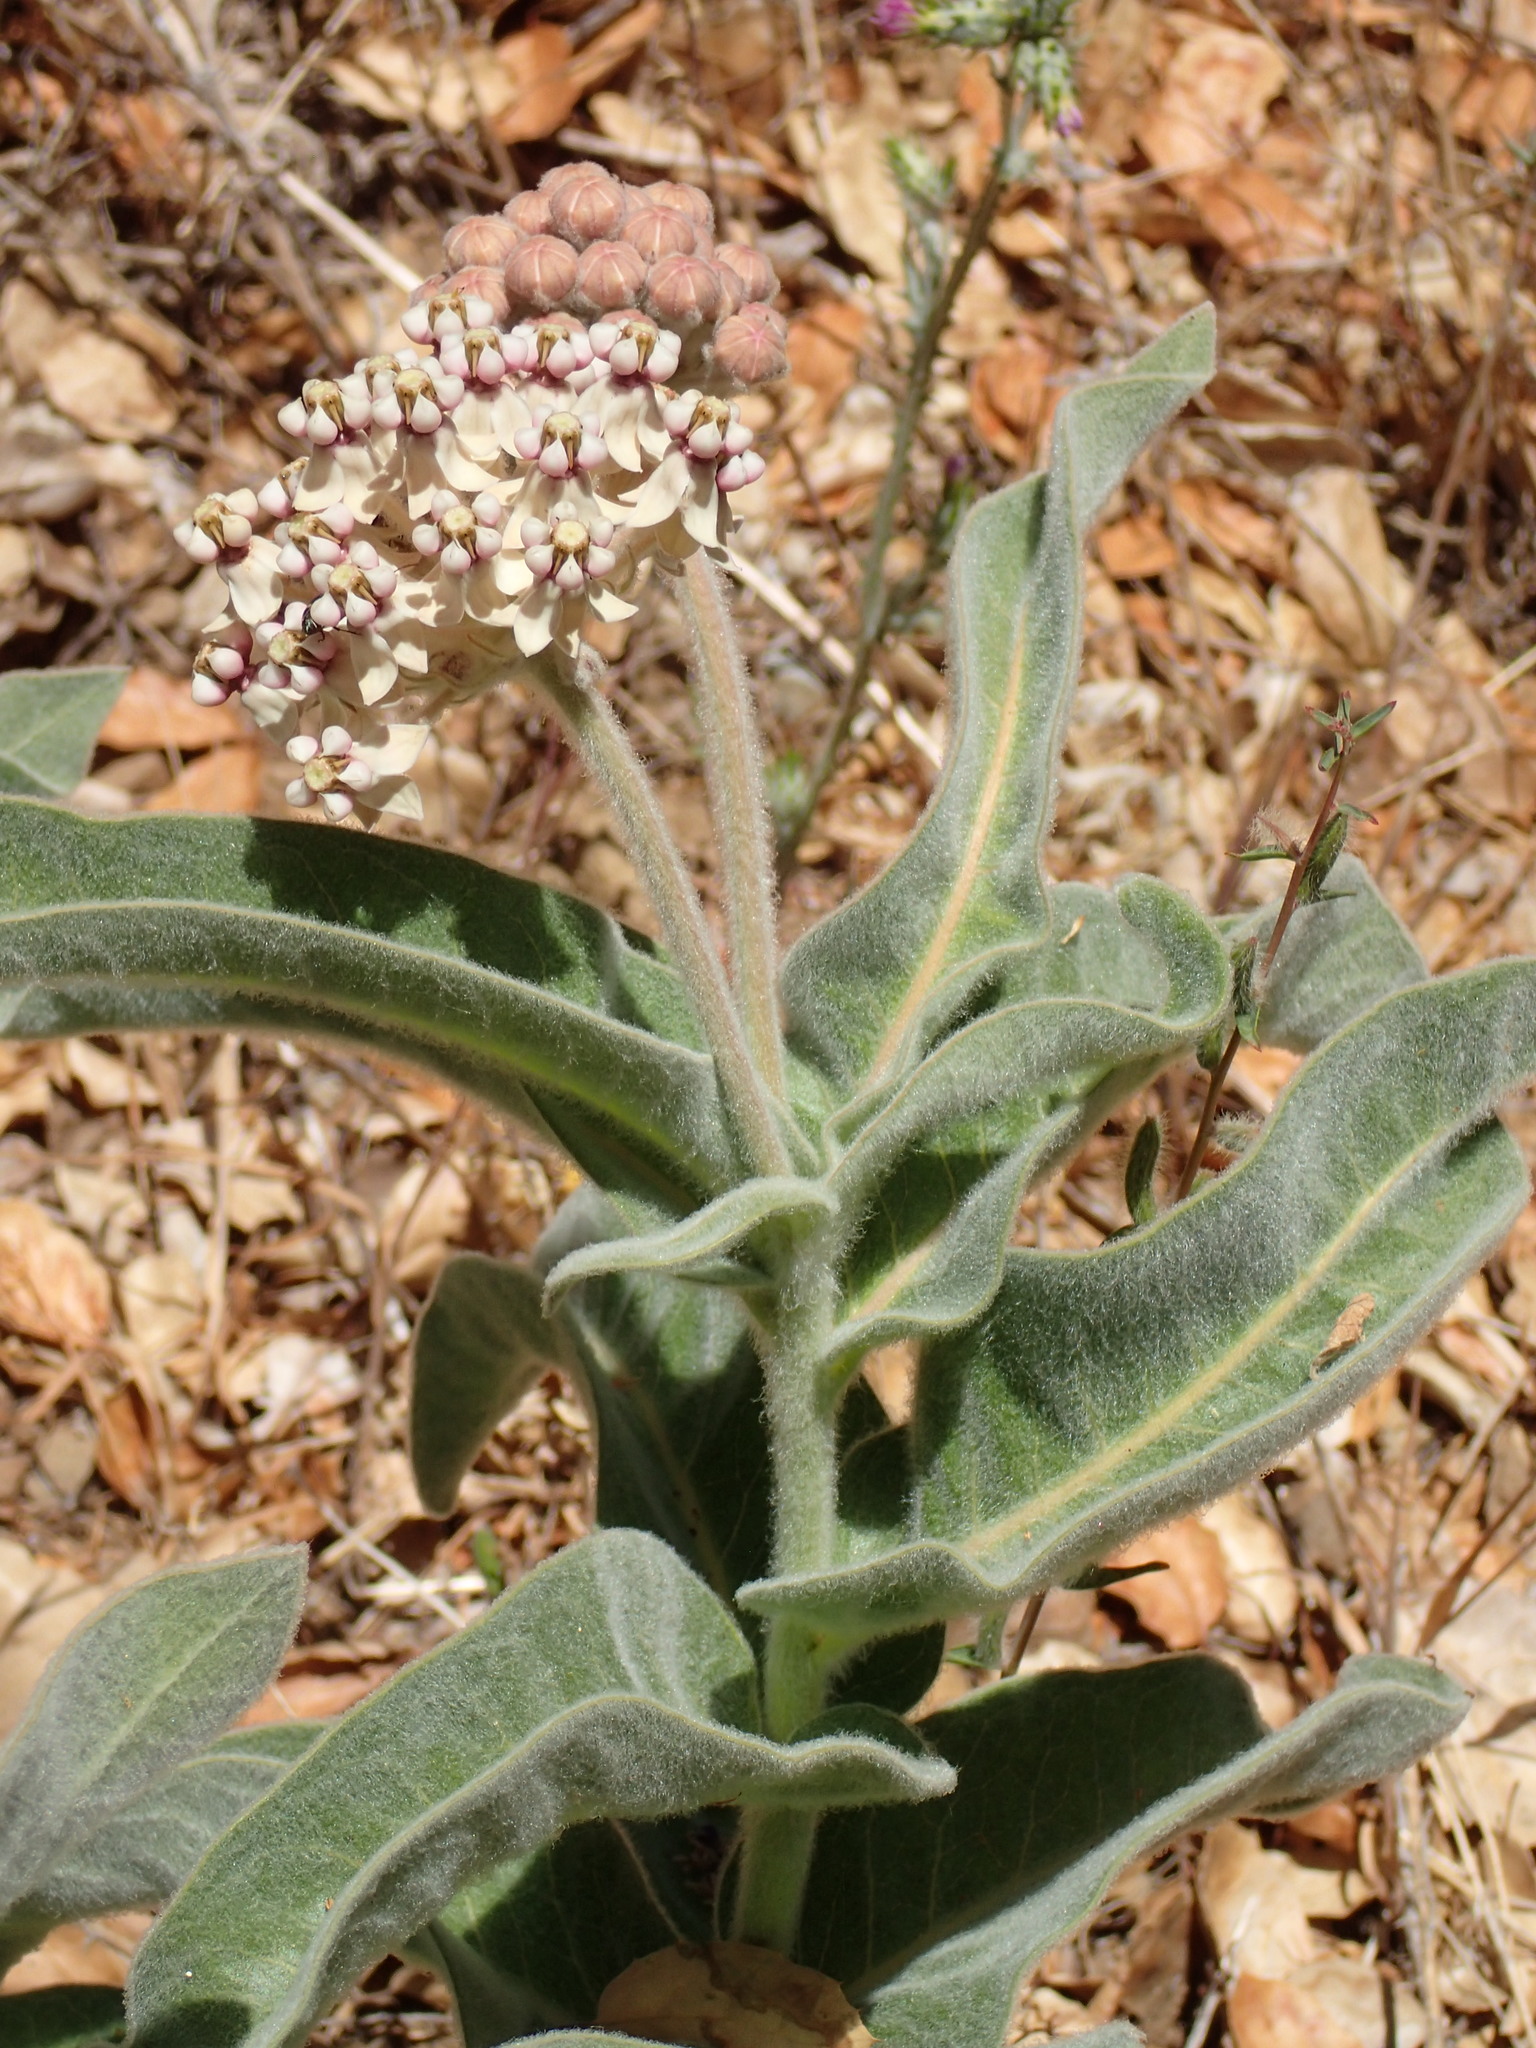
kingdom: Plantae
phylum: Tracheophyta
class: Magnoliopsida
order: Gentianales
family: Apocynaceae
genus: Asclepias
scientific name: Asclepias eriocarpa
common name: Indian milkweed
